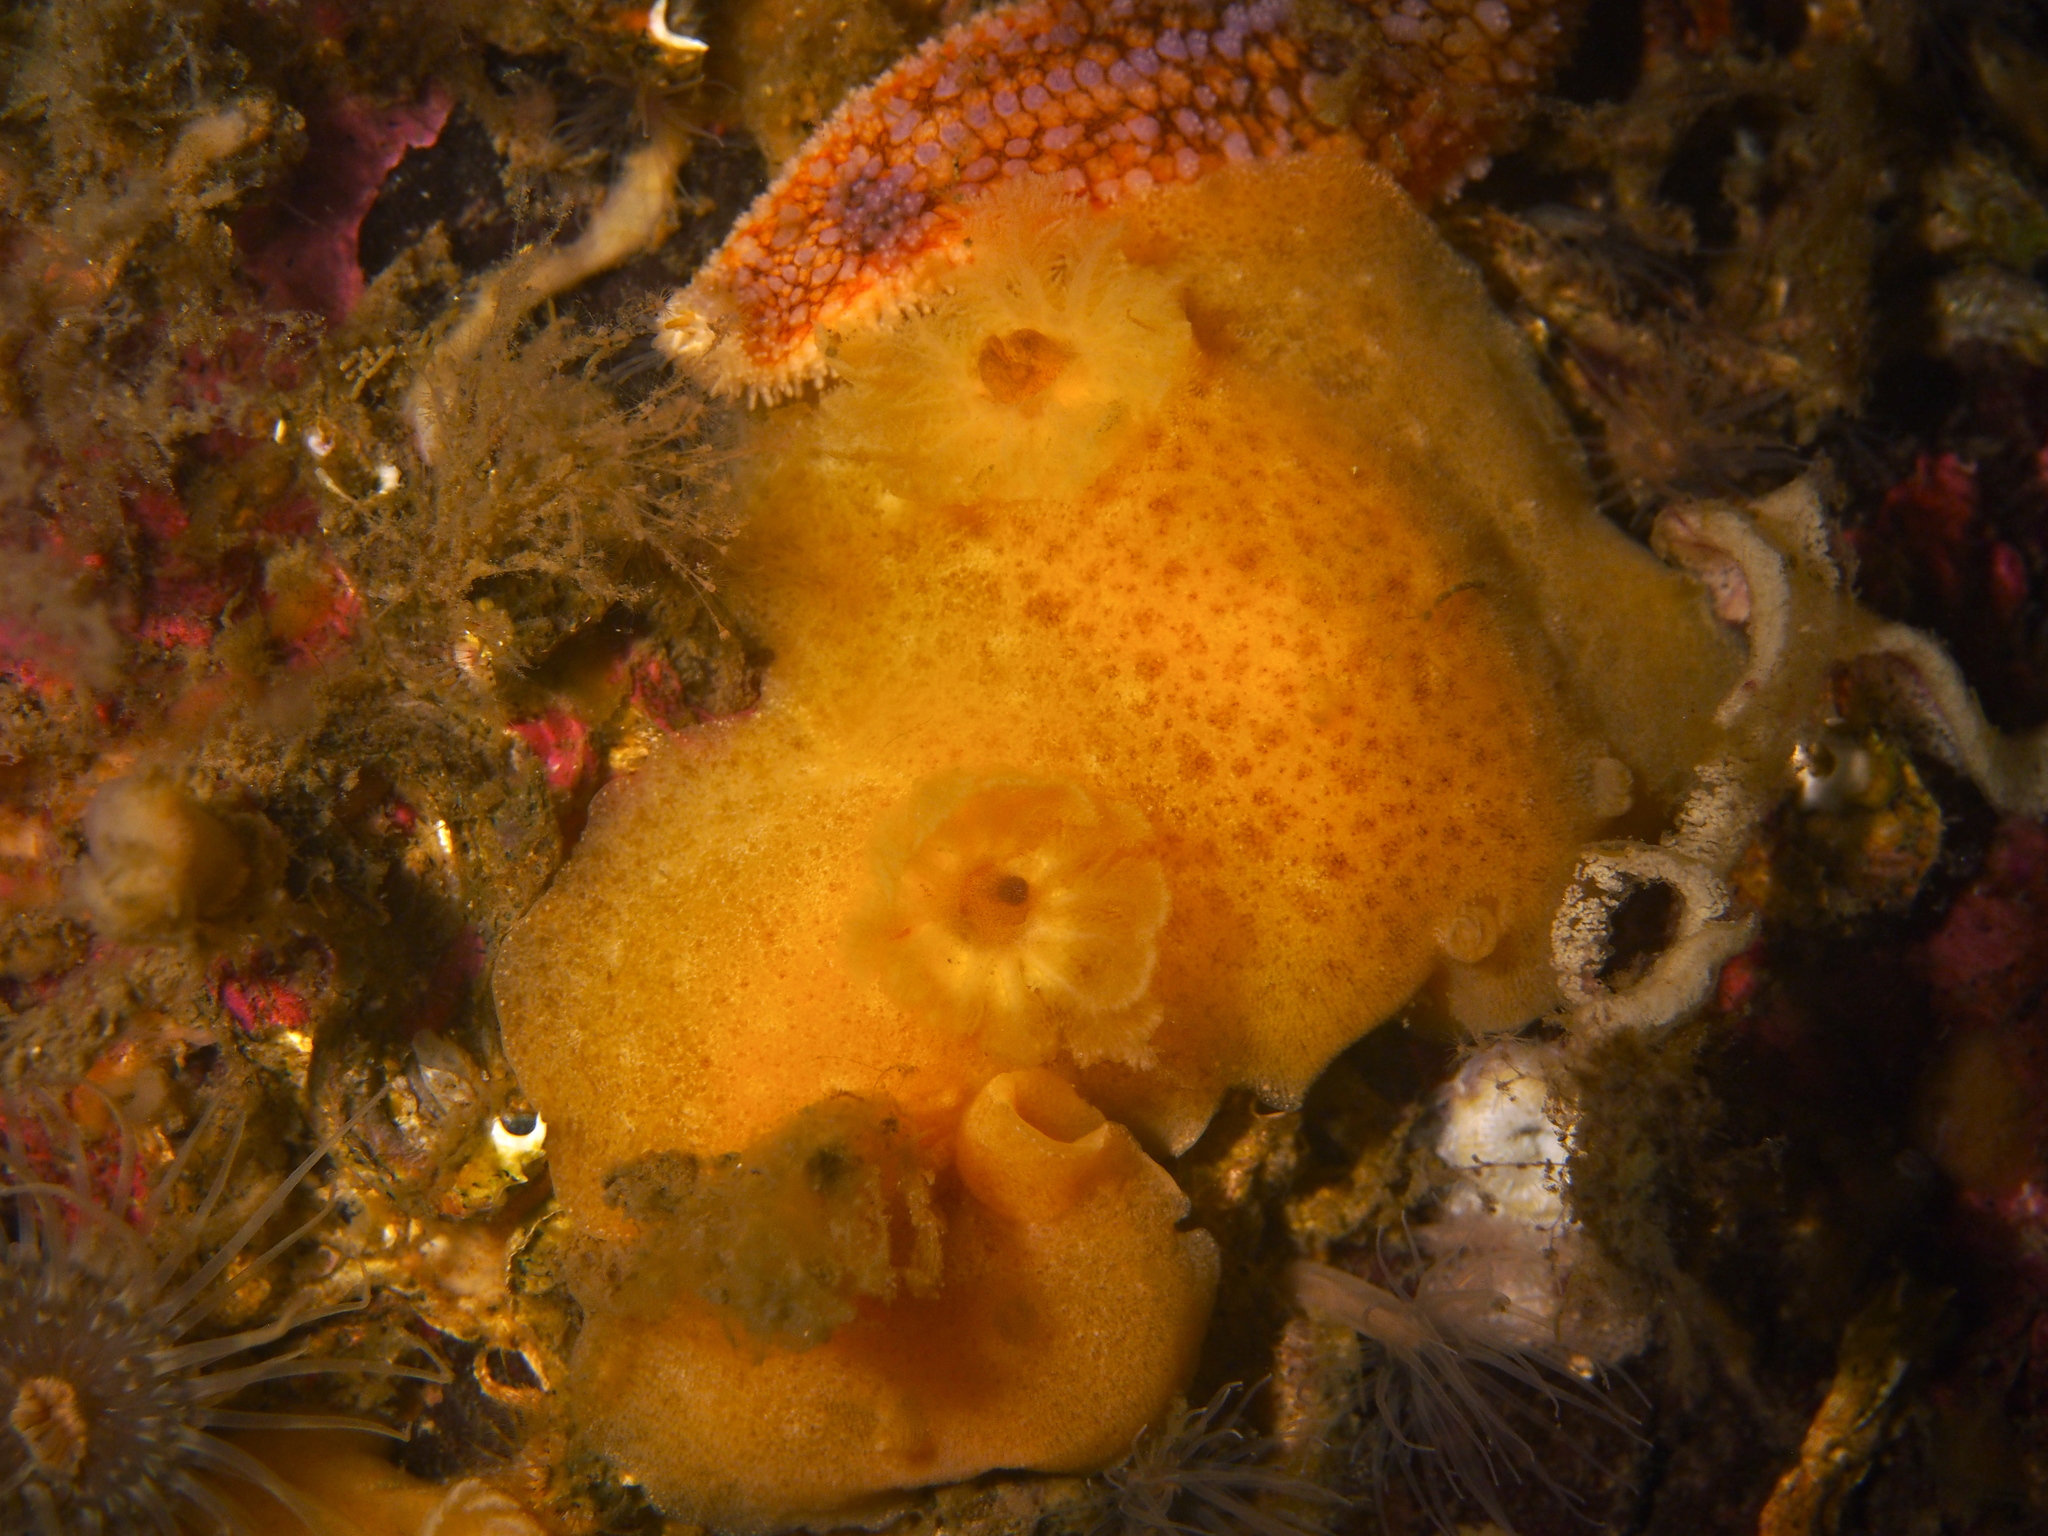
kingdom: Animalia
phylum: Mollusca
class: Gastropoda
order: Nudibranchia
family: Discodorididae
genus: Jorunna
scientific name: Jorunna tomentosa
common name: Grey sea slug
